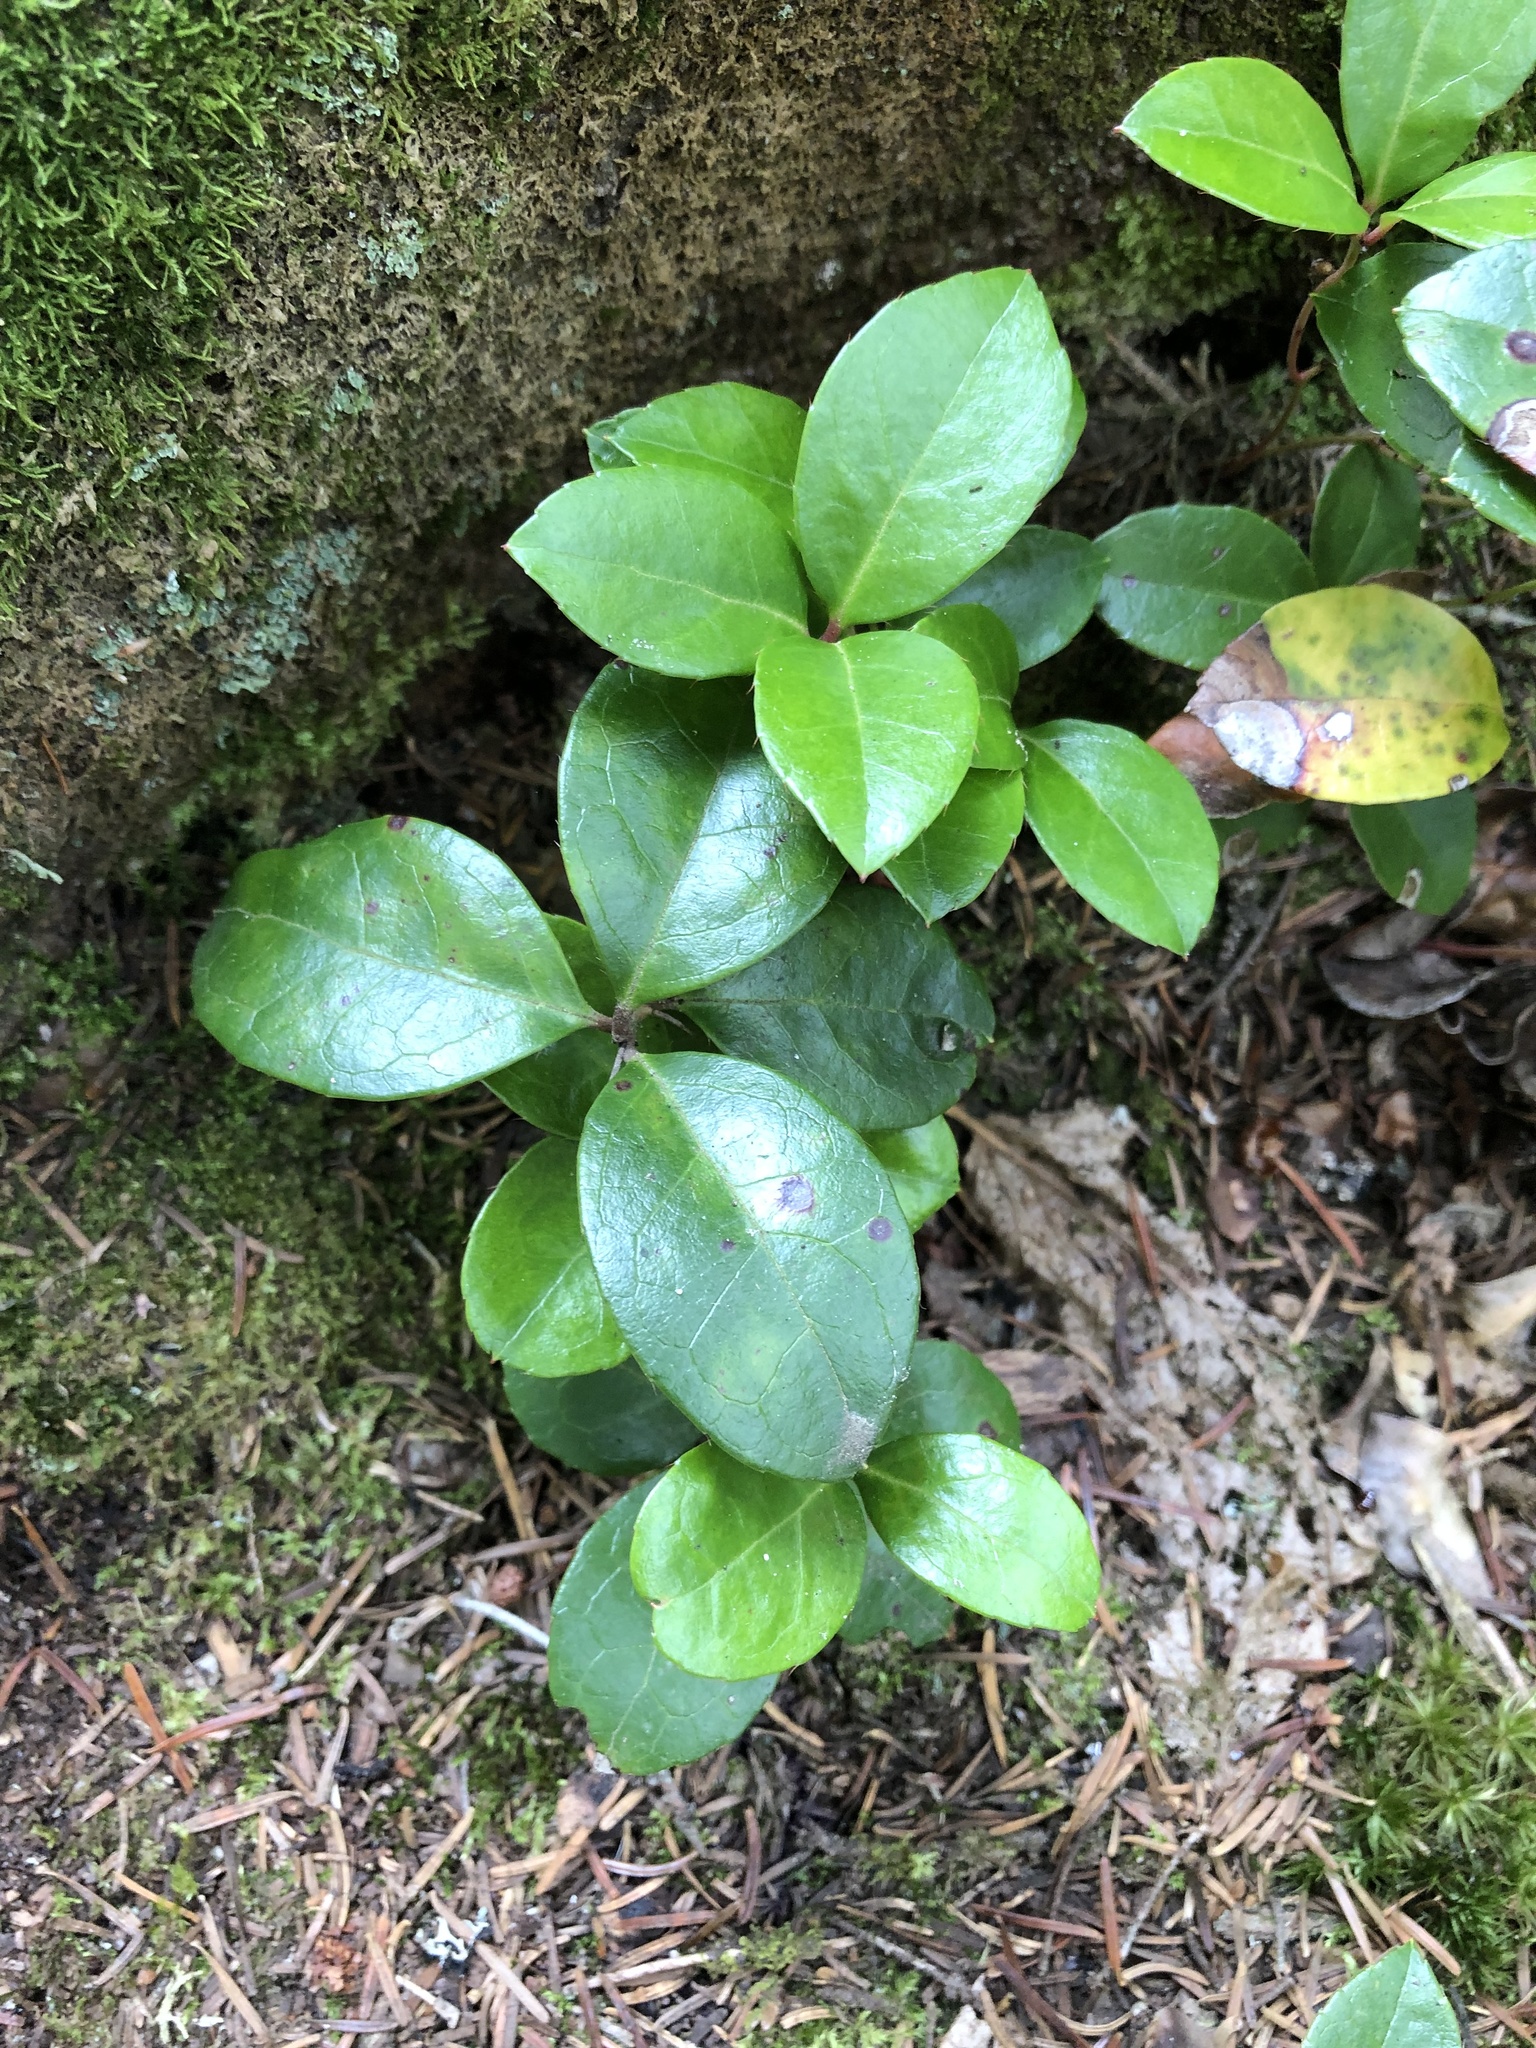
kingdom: Plantae
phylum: Tracheophyta
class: Magnoliopsida
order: Ericales
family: Ericaceae
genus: Gaultheria
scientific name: Gaultheria procumbens
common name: Checkerberry
